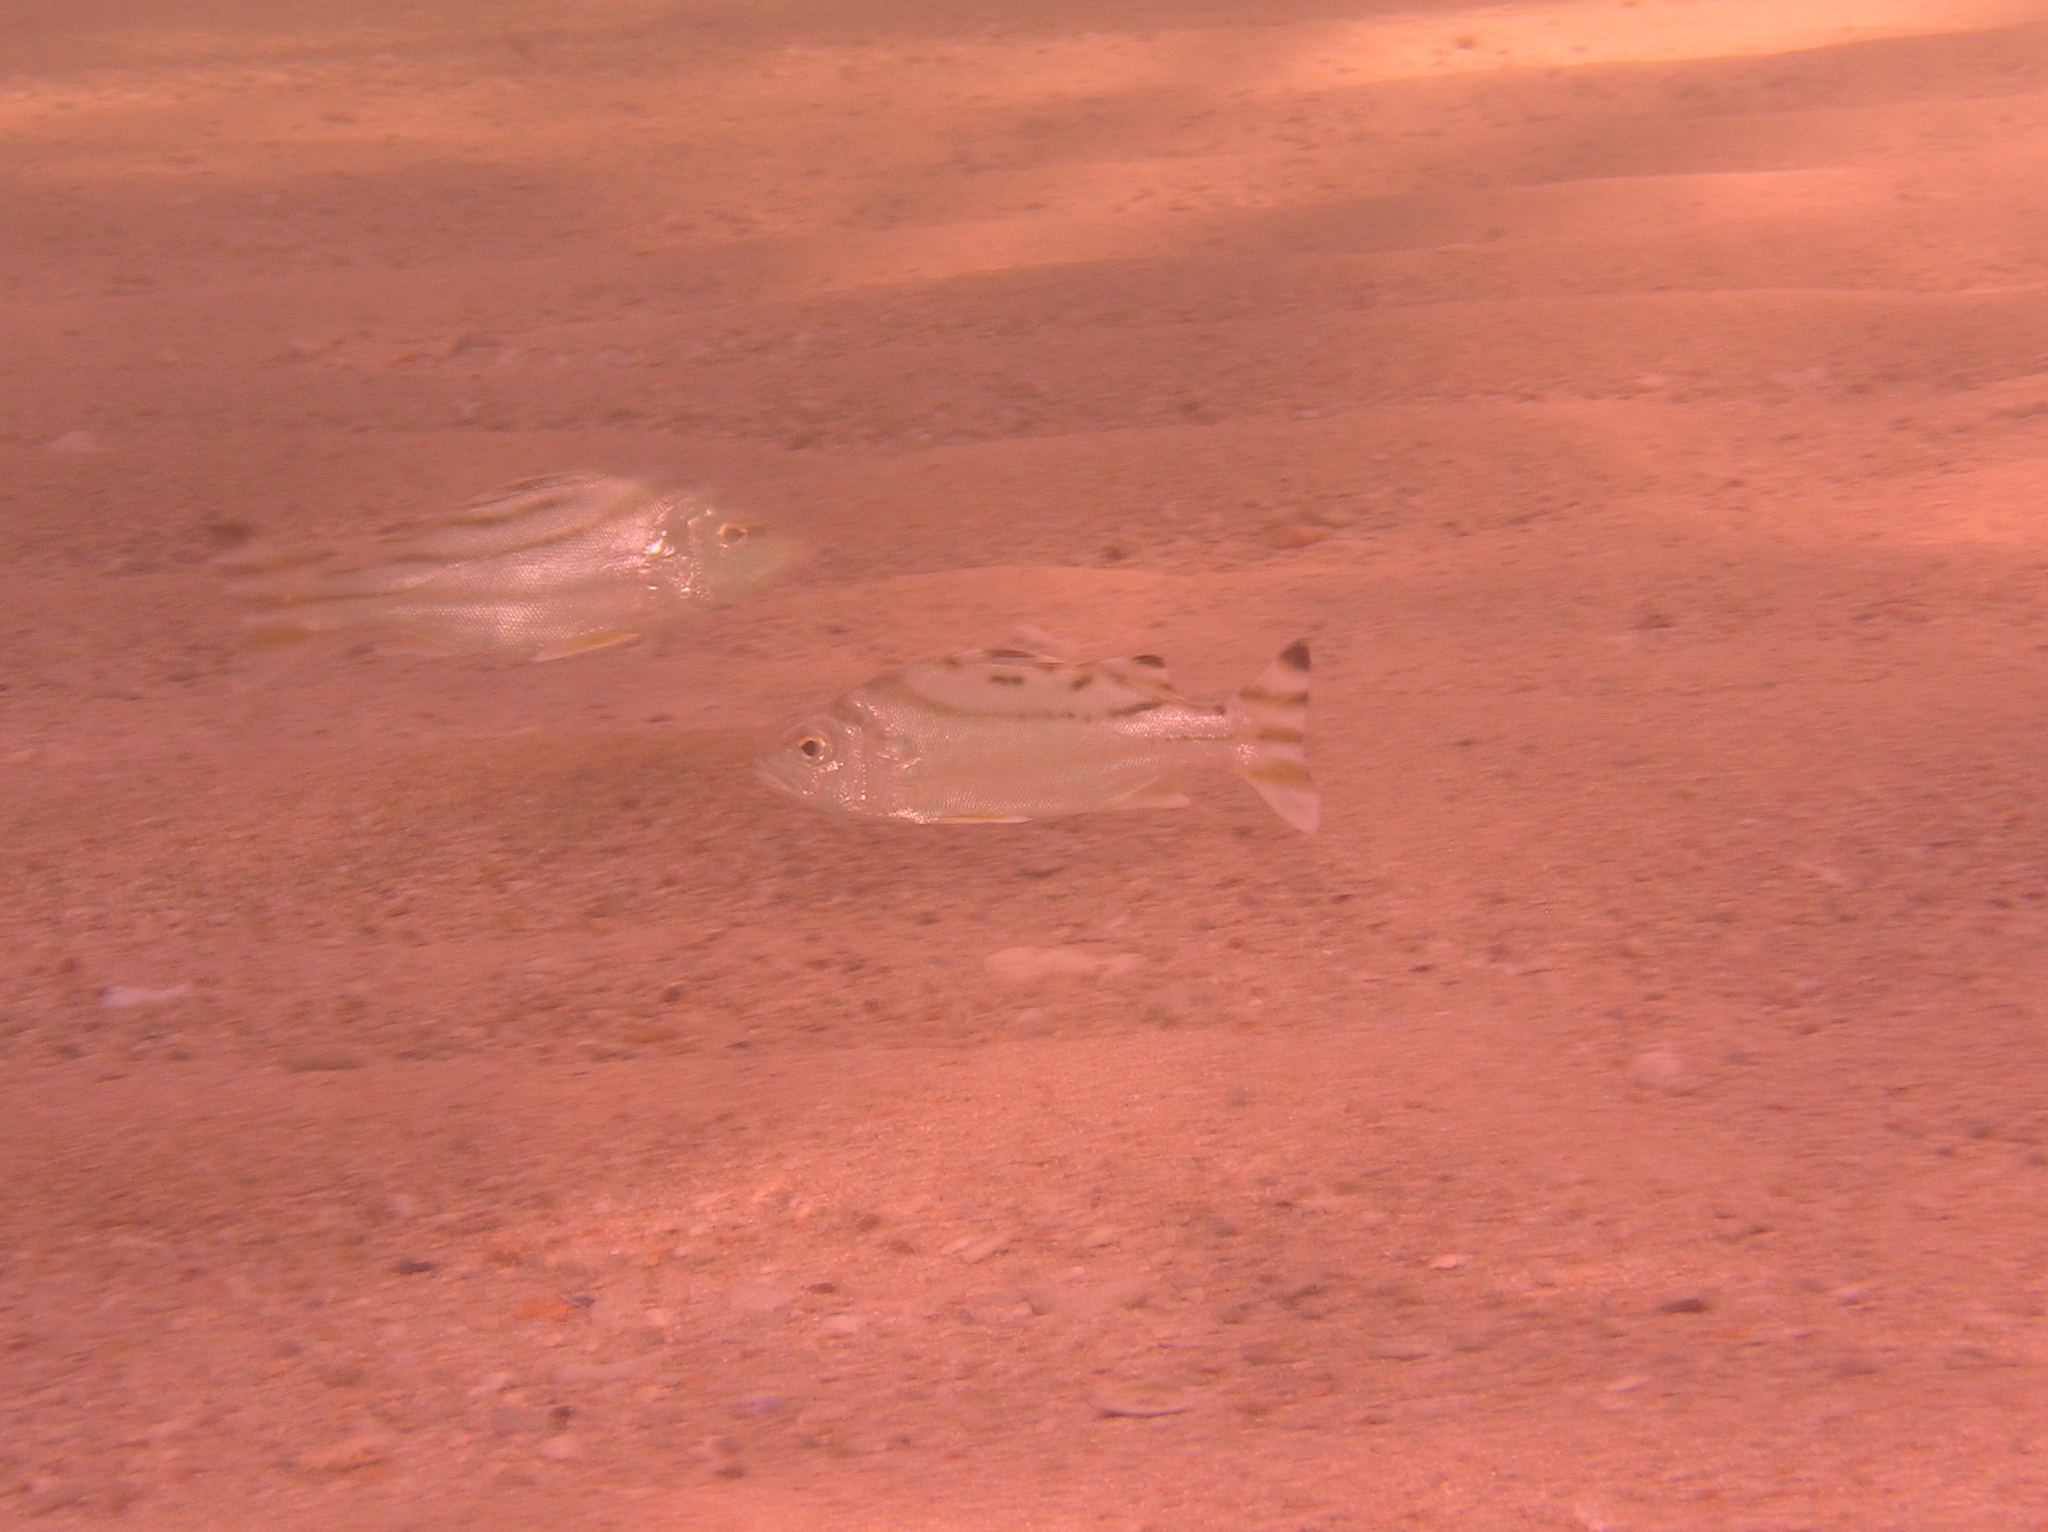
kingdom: Animalia
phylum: Chordata
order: Perciformes
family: Terapontidae
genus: Terapon
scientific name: Terapon jarbua
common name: Jarbua terapon
